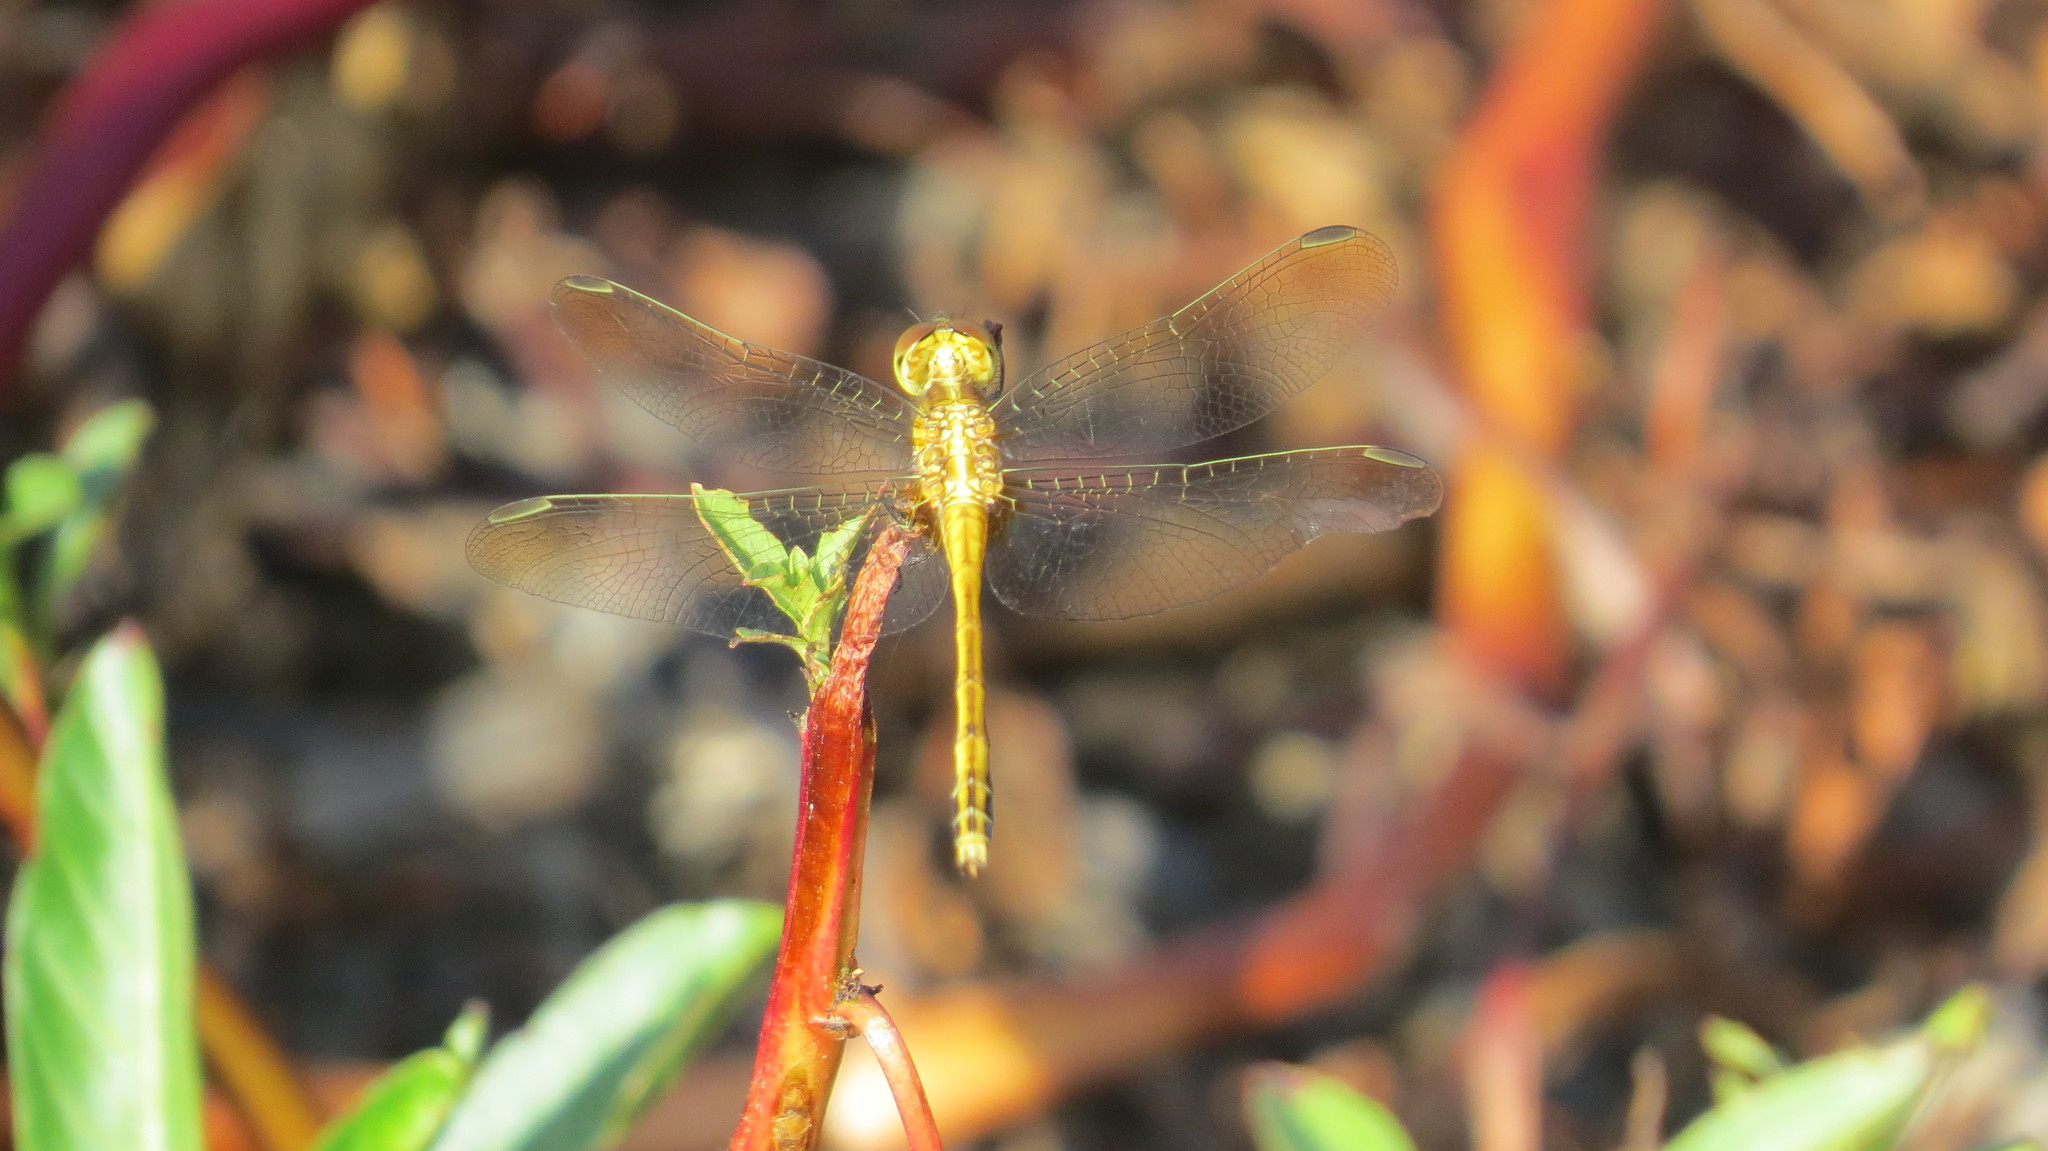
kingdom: Animalia
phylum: Arthropoda
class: Insecta
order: Odonata
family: Libellulidae
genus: Erythrodiplax
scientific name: Erythrodiplax nigricans
